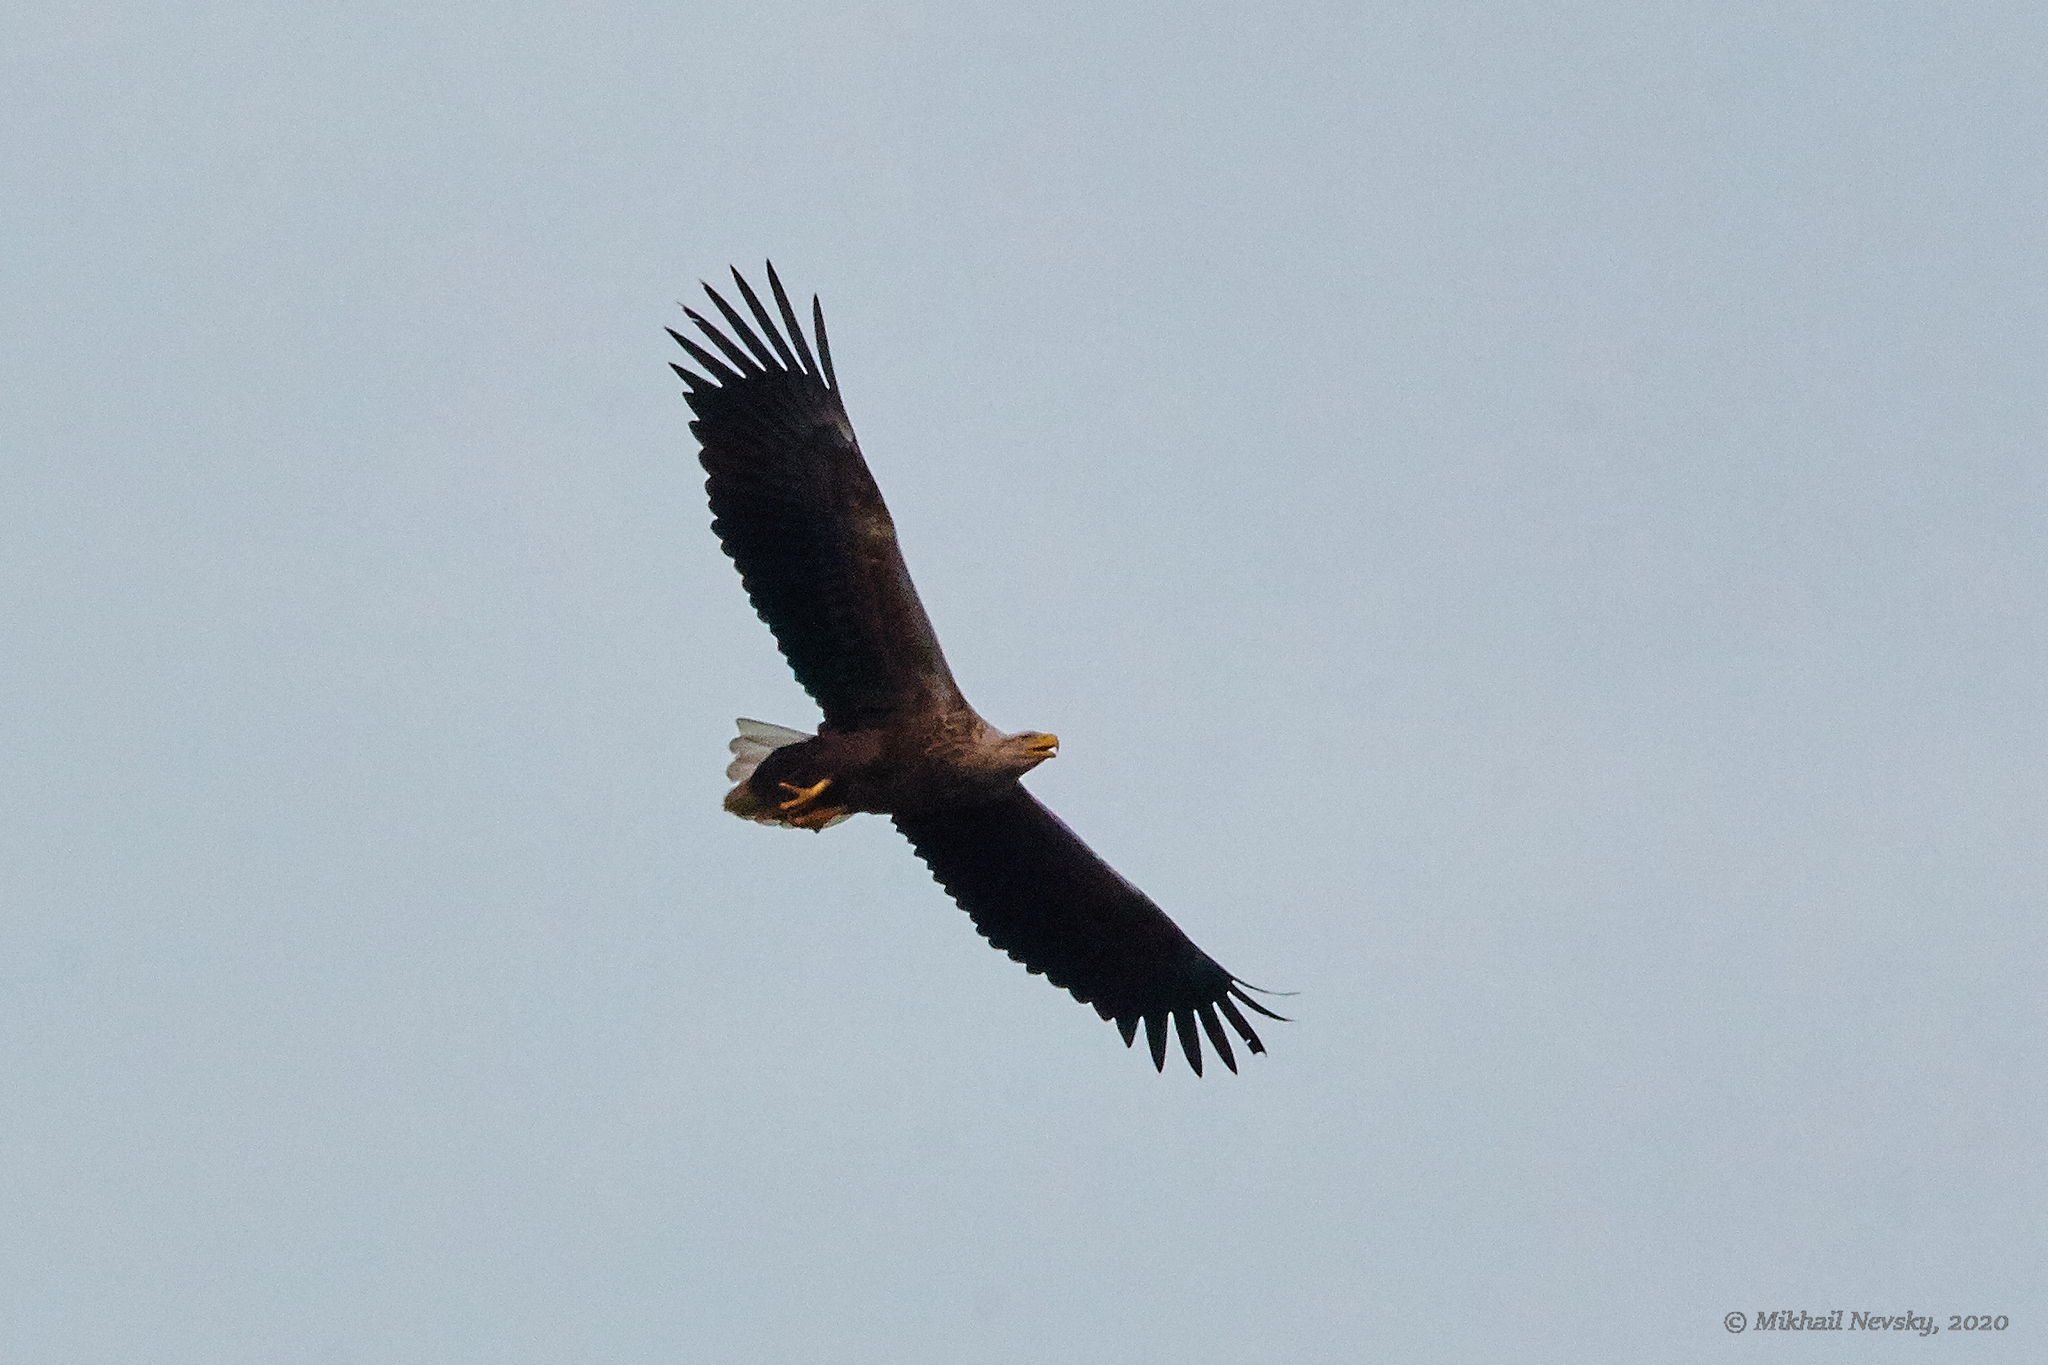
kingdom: Animalia
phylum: Chordata
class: Aves
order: Accipitriformes
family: Accipitridae
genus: Haliaeetus
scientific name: Haliaeetus albicilla
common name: White-tailed eagle
